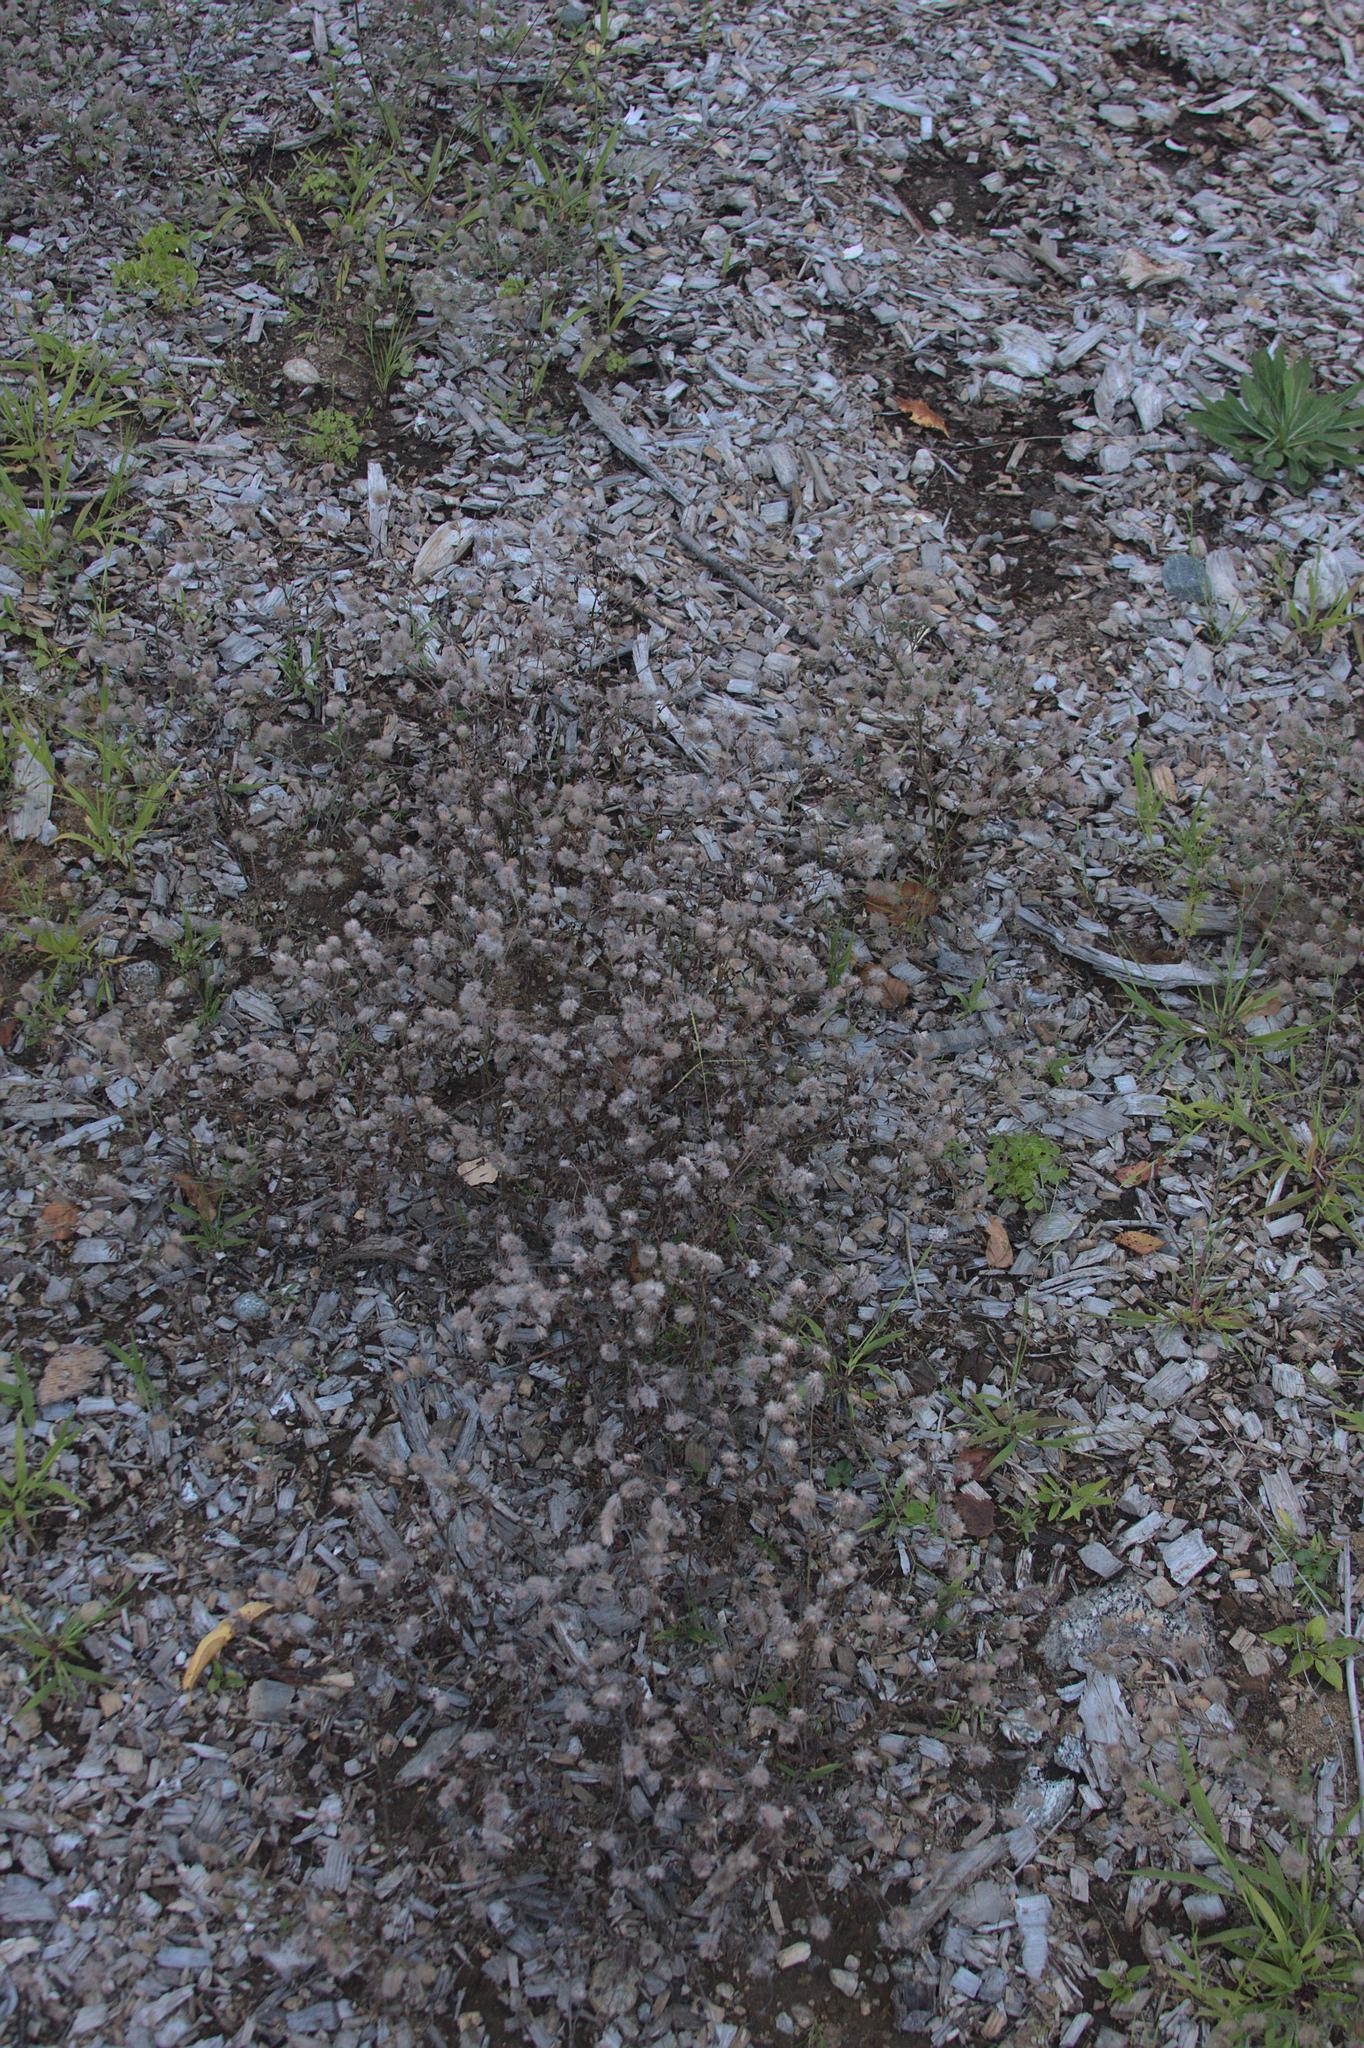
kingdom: Plantae
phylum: Tracheophyta
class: Magnoliopsida
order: Fabales
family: Fabaceae
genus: Trifolium
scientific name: Trifolium arvense
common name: Hare's-foot clover
